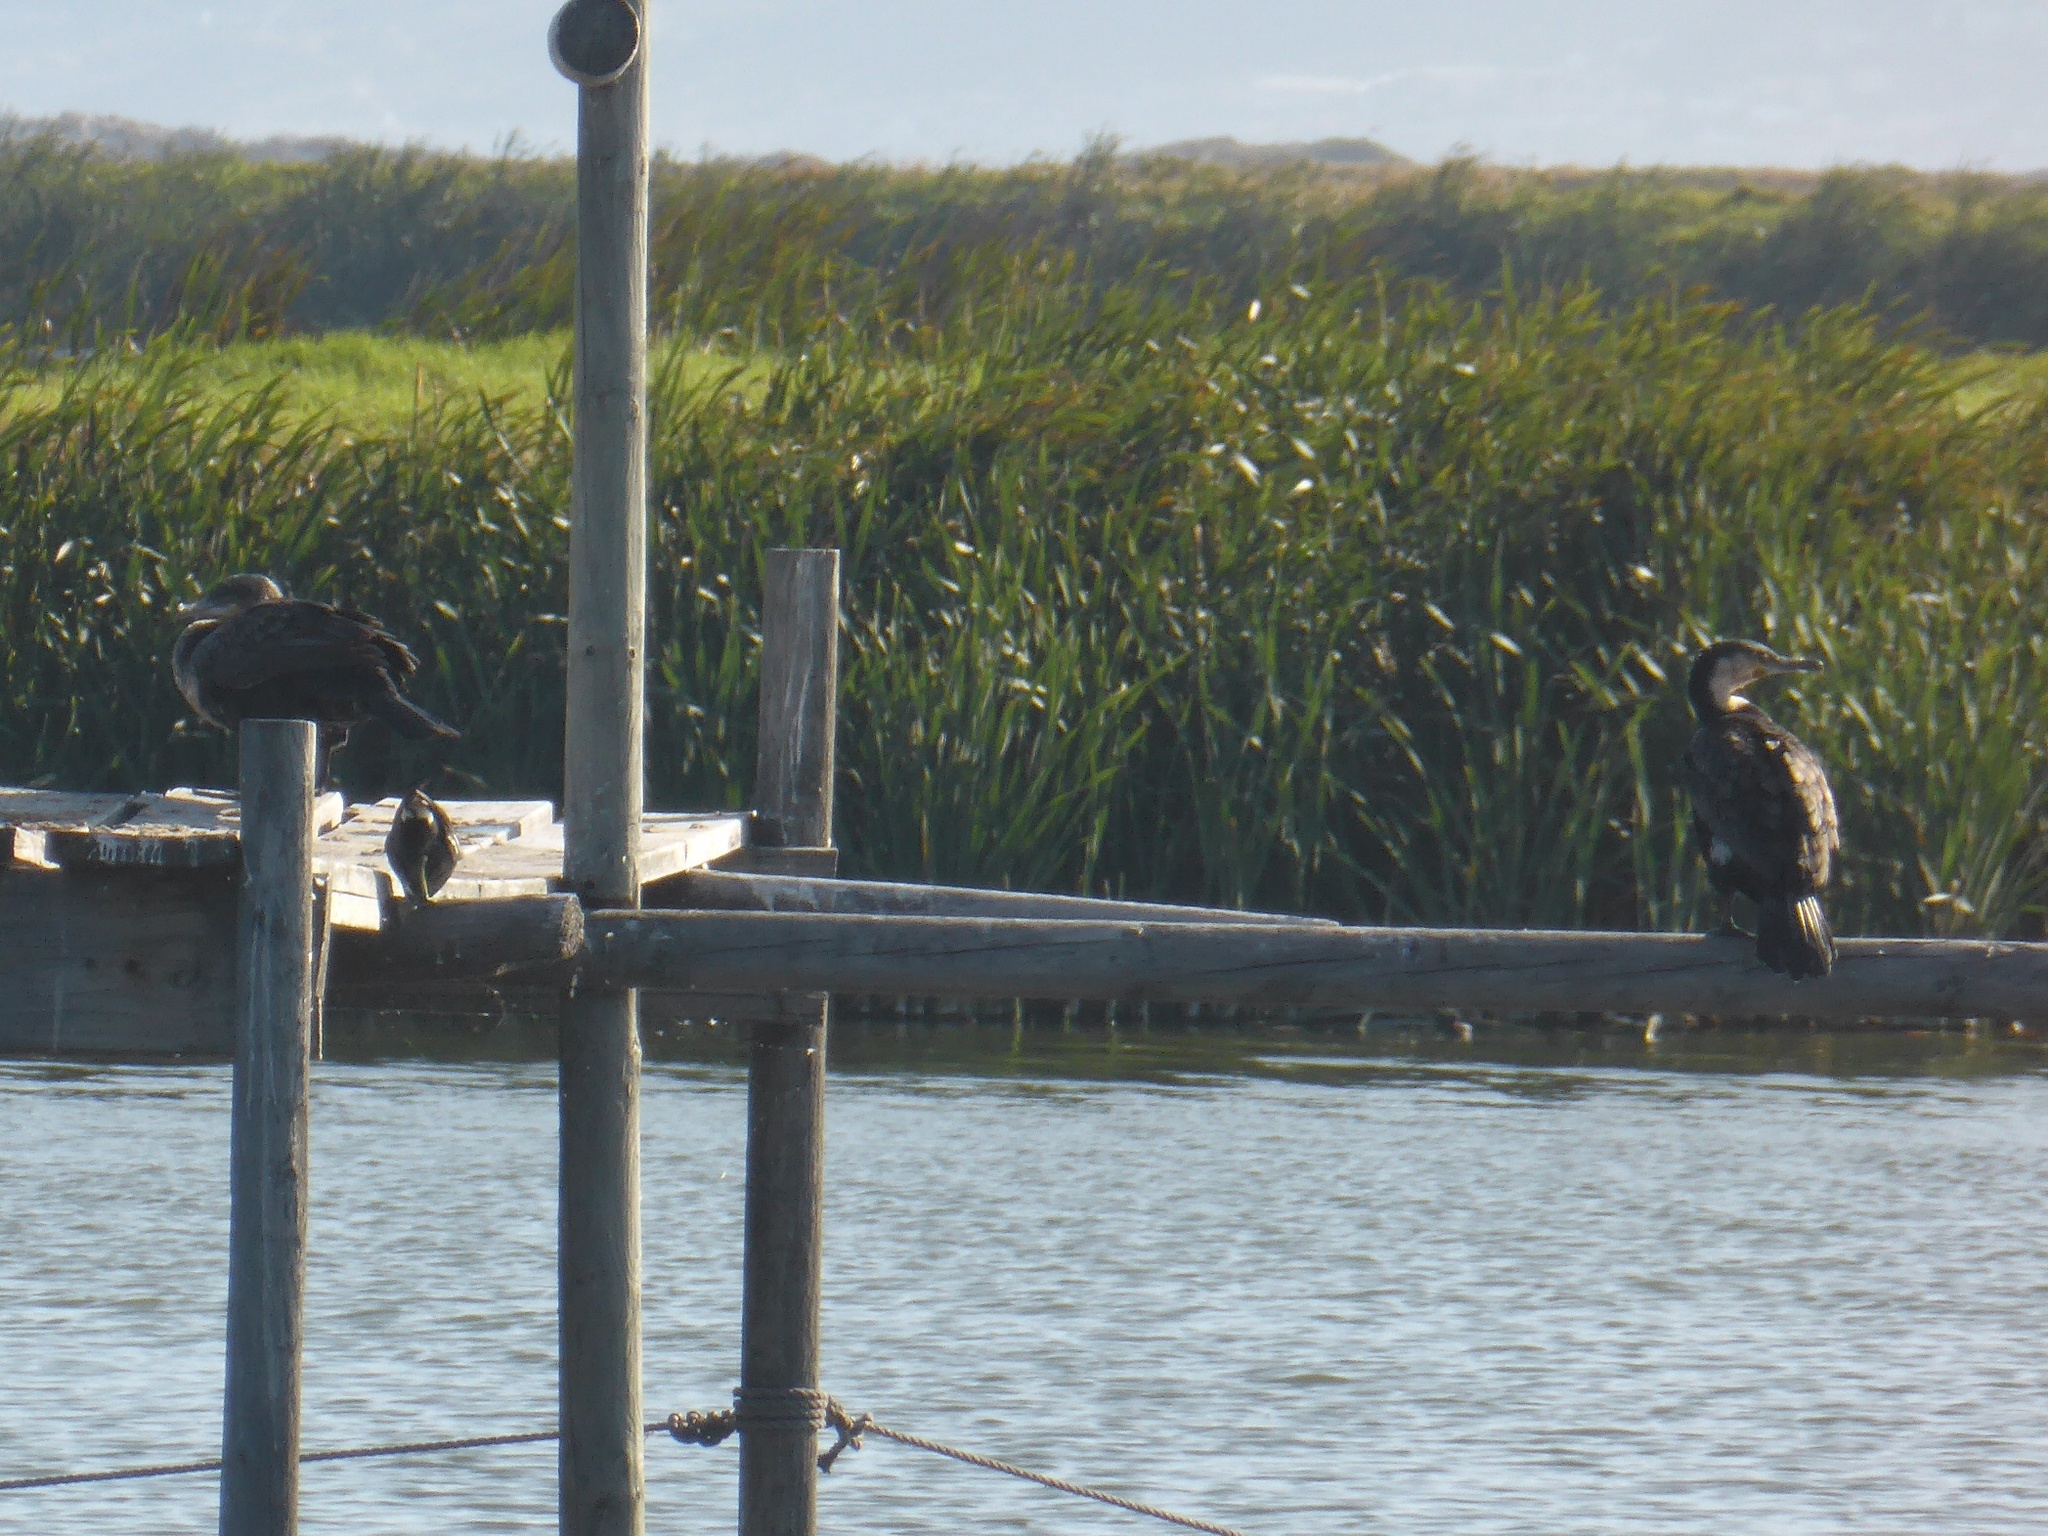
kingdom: Animalia
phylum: Chordata
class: Aves
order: Suliformes
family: Phalacrocoracidae
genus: Phalacrocorax
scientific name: Phalacrocorax carbo
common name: Great cormorant
